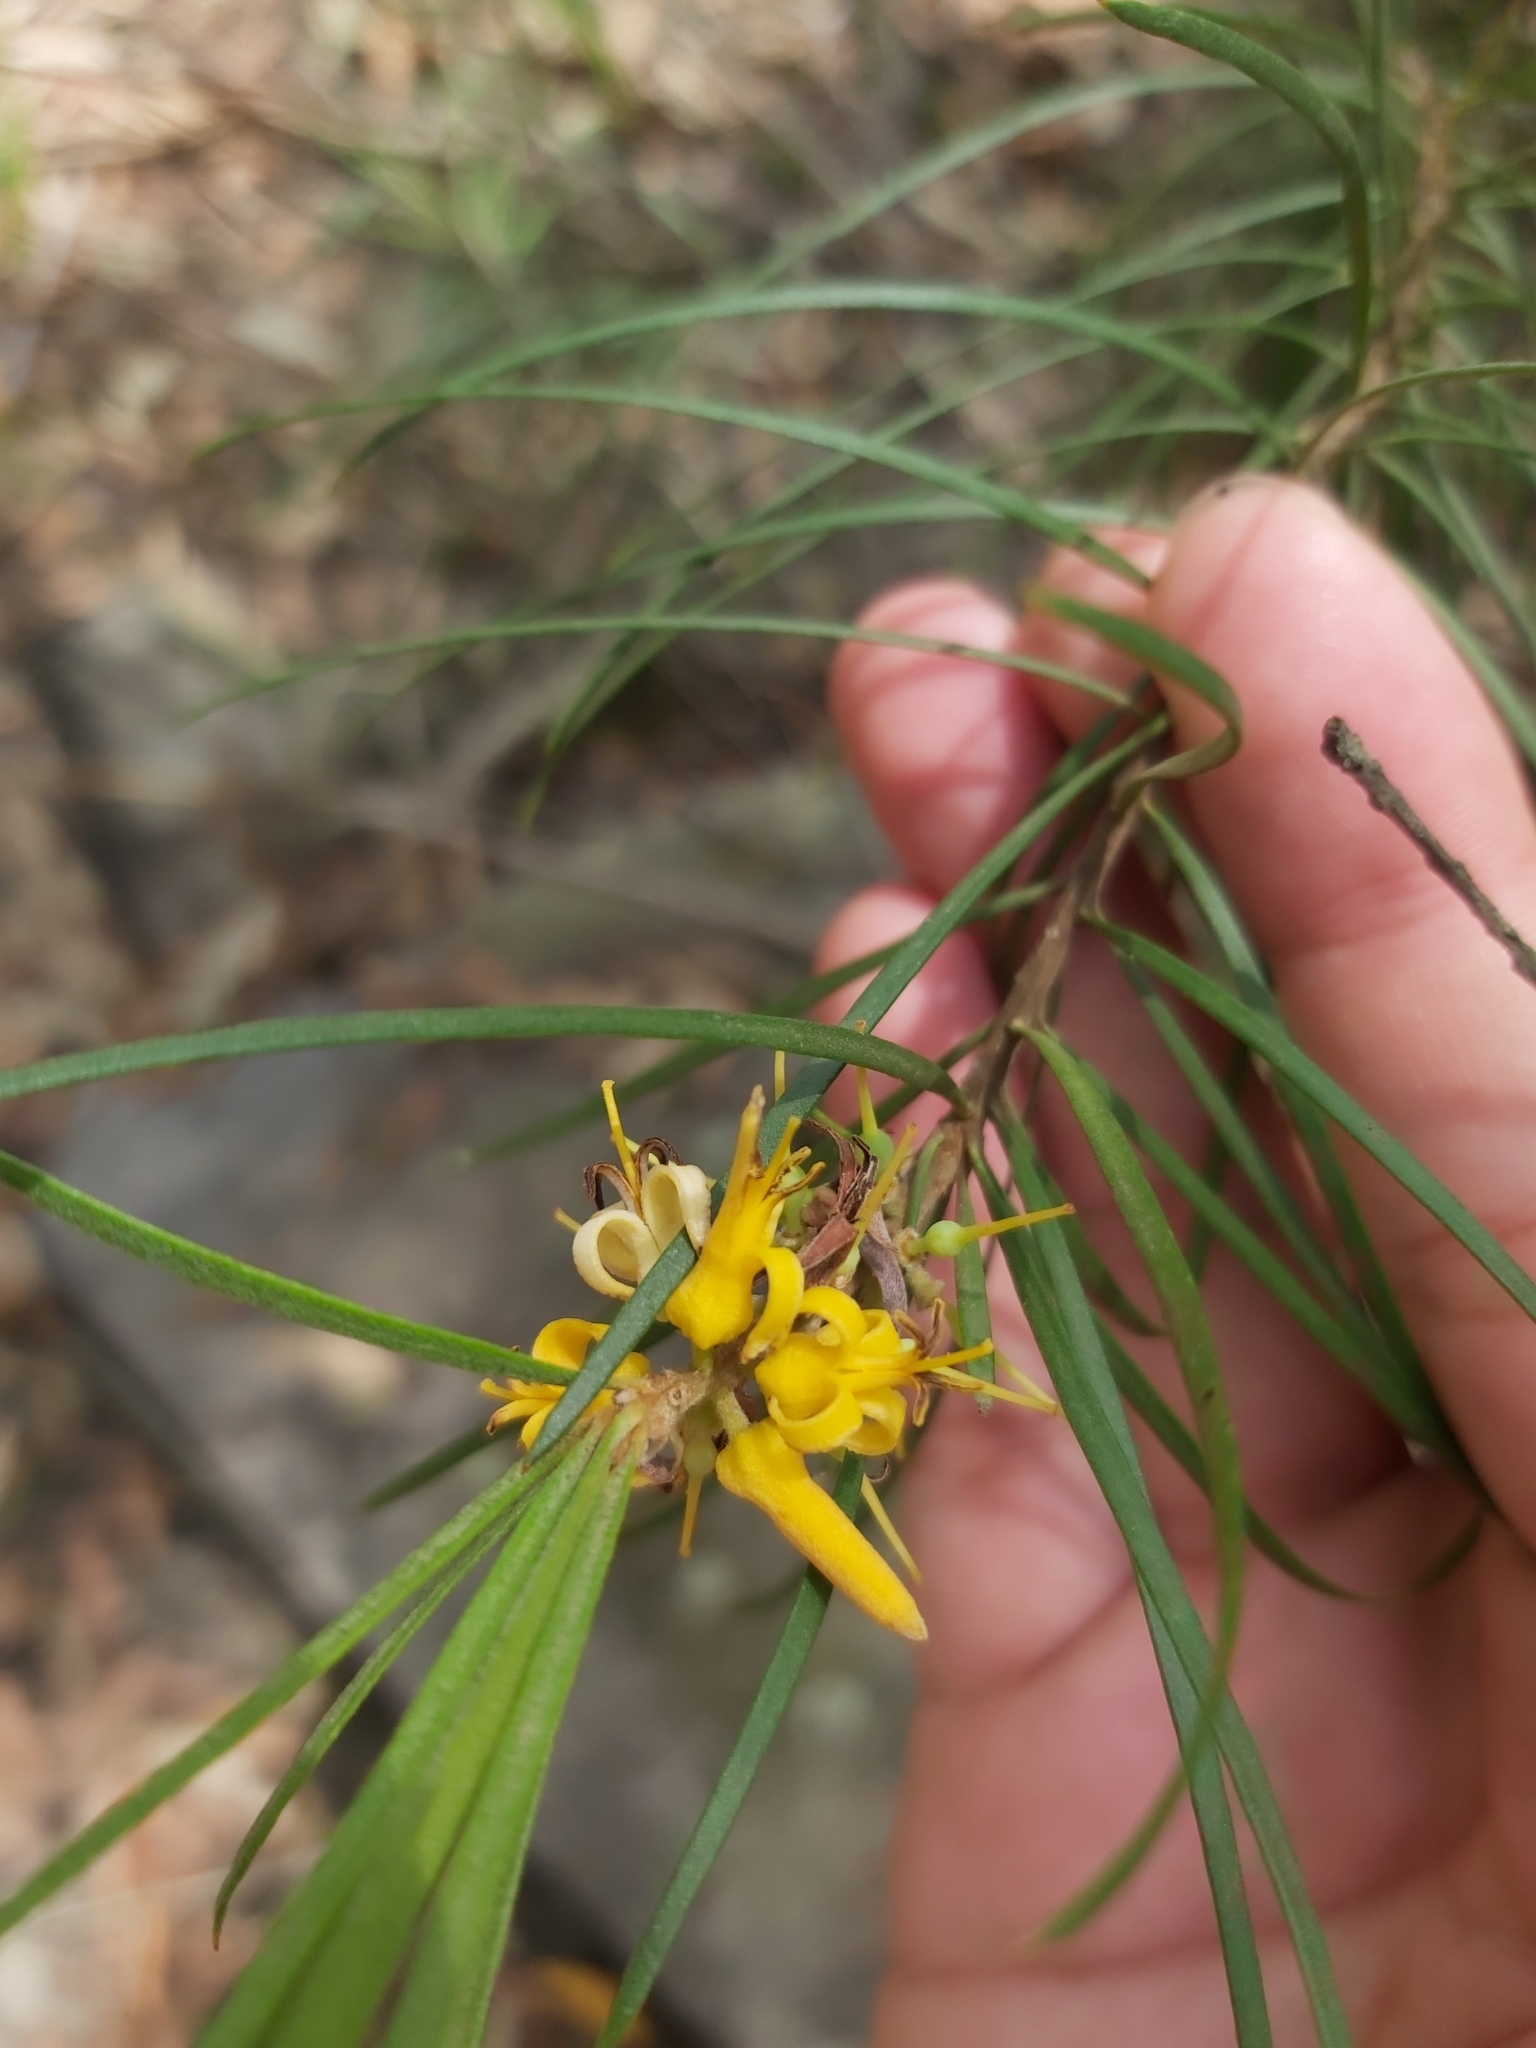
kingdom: Plantae
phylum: Tracheophyta
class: Magnoliopsida
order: Proteales
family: Proteaceae
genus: Persoonia
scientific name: Persoonia linearis
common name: Narrow-leaf geebung
